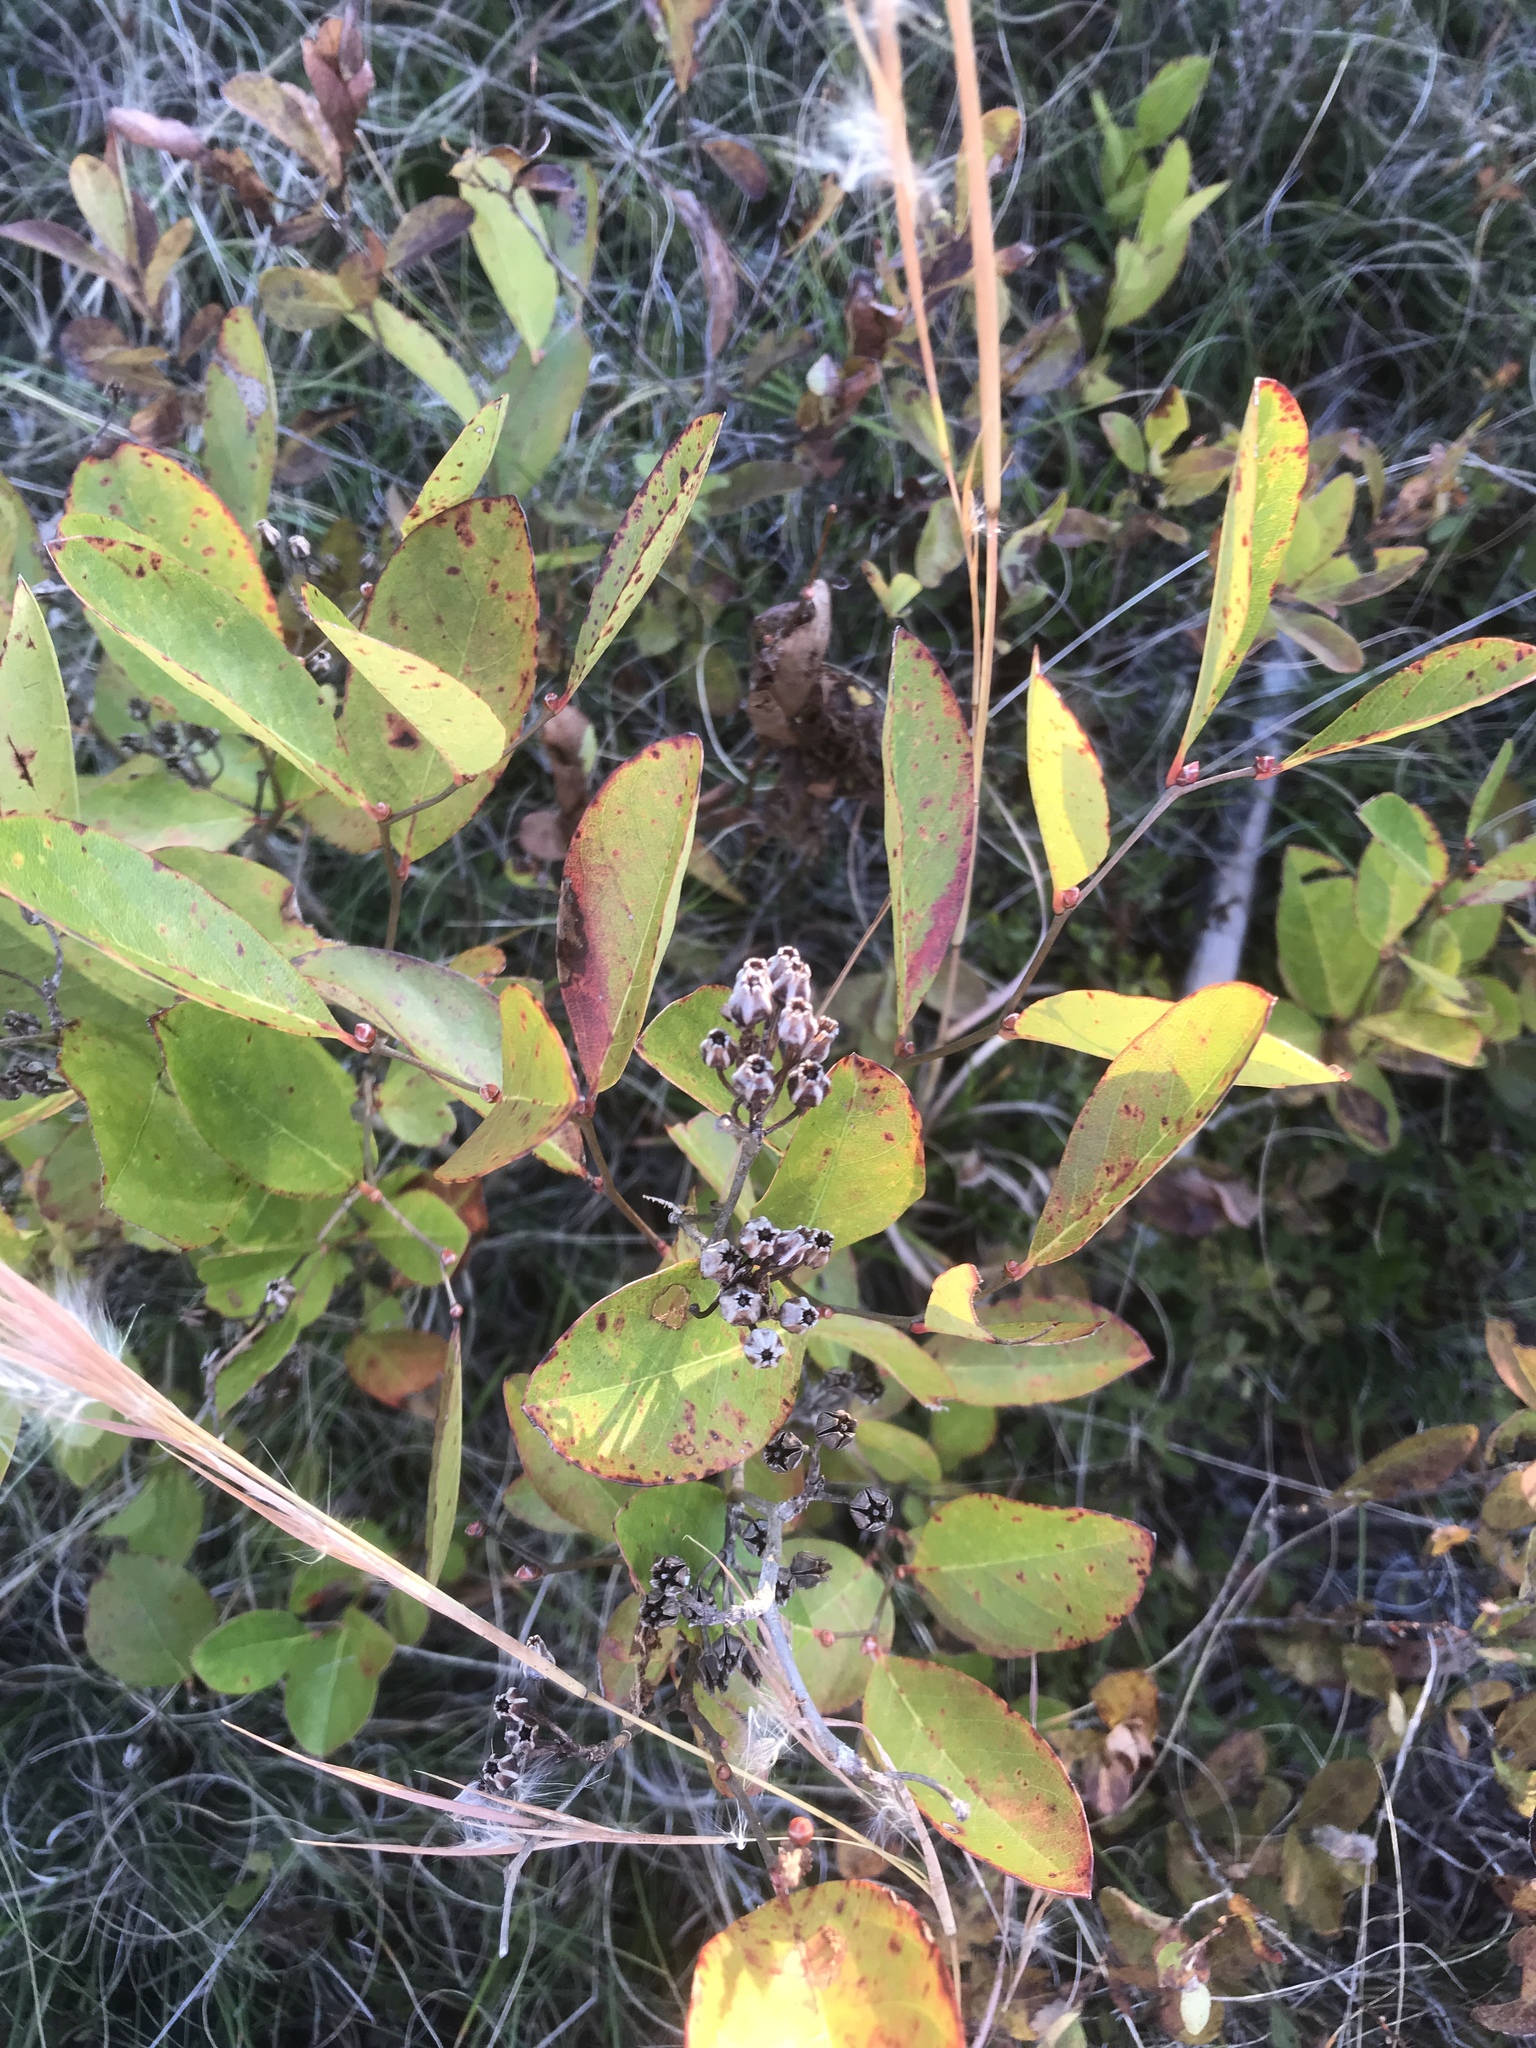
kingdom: Plantae
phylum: Tracheophyta
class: Magnoliopsida
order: Ericales
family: Ericaceae
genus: Lyonia
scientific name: Lyonia mariana
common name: Staggerbush
